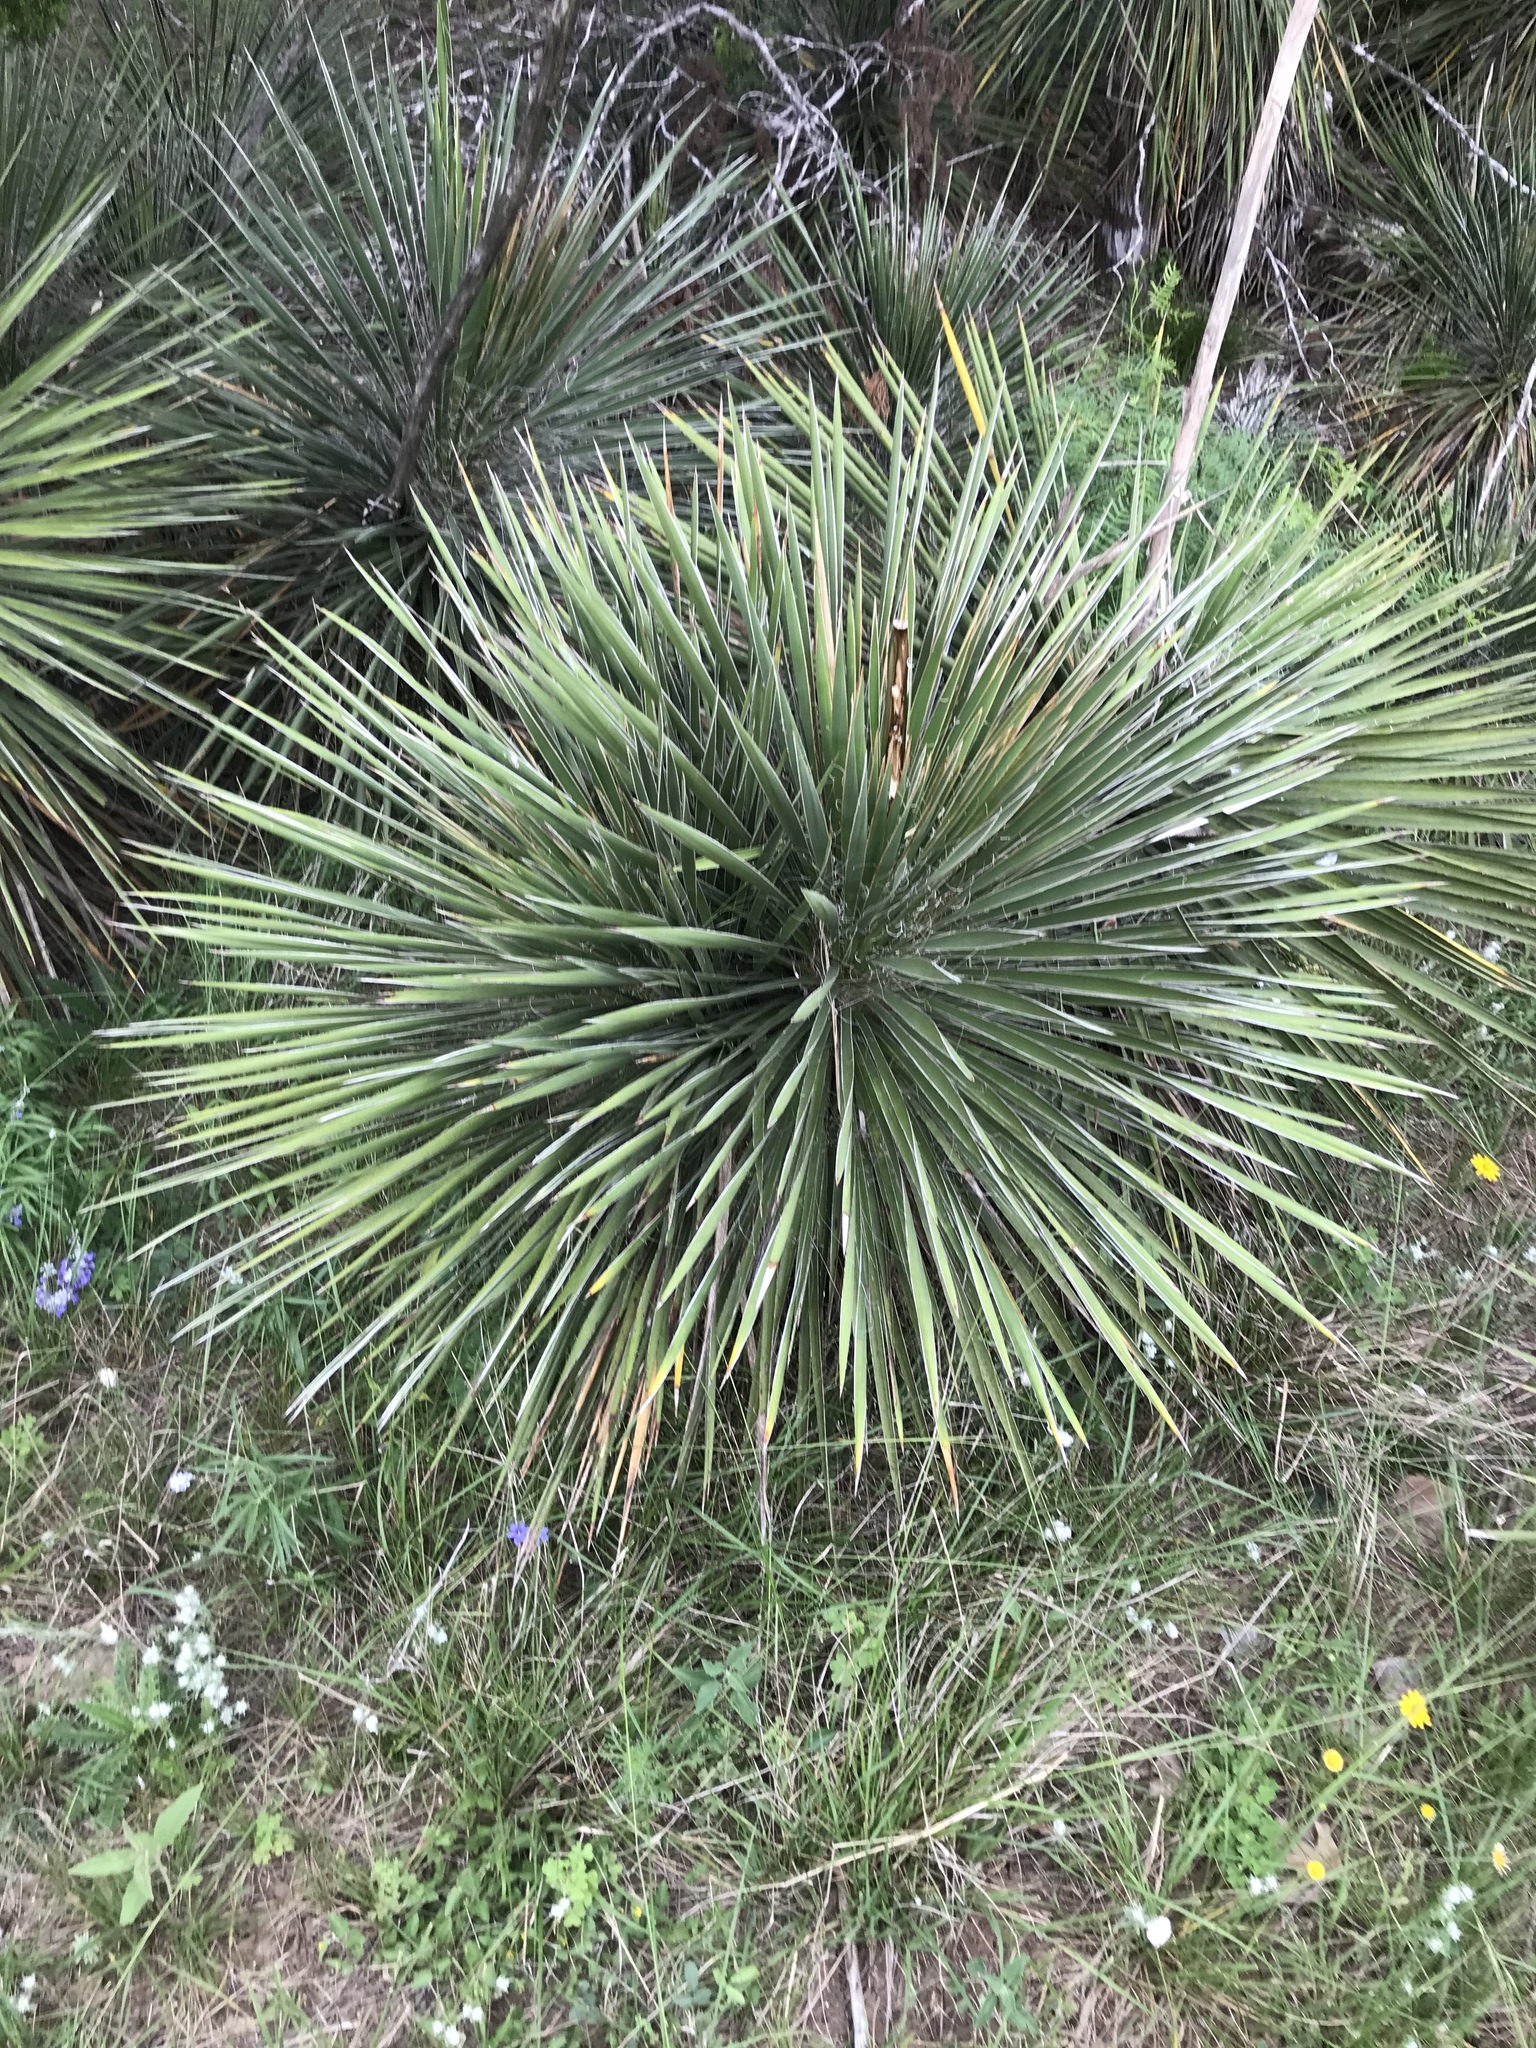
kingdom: Plantae
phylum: Tracheophyta
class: Liliopsida
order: Asparagales
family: Asparagaceae
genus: Yucca
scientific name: Yucca constricta
